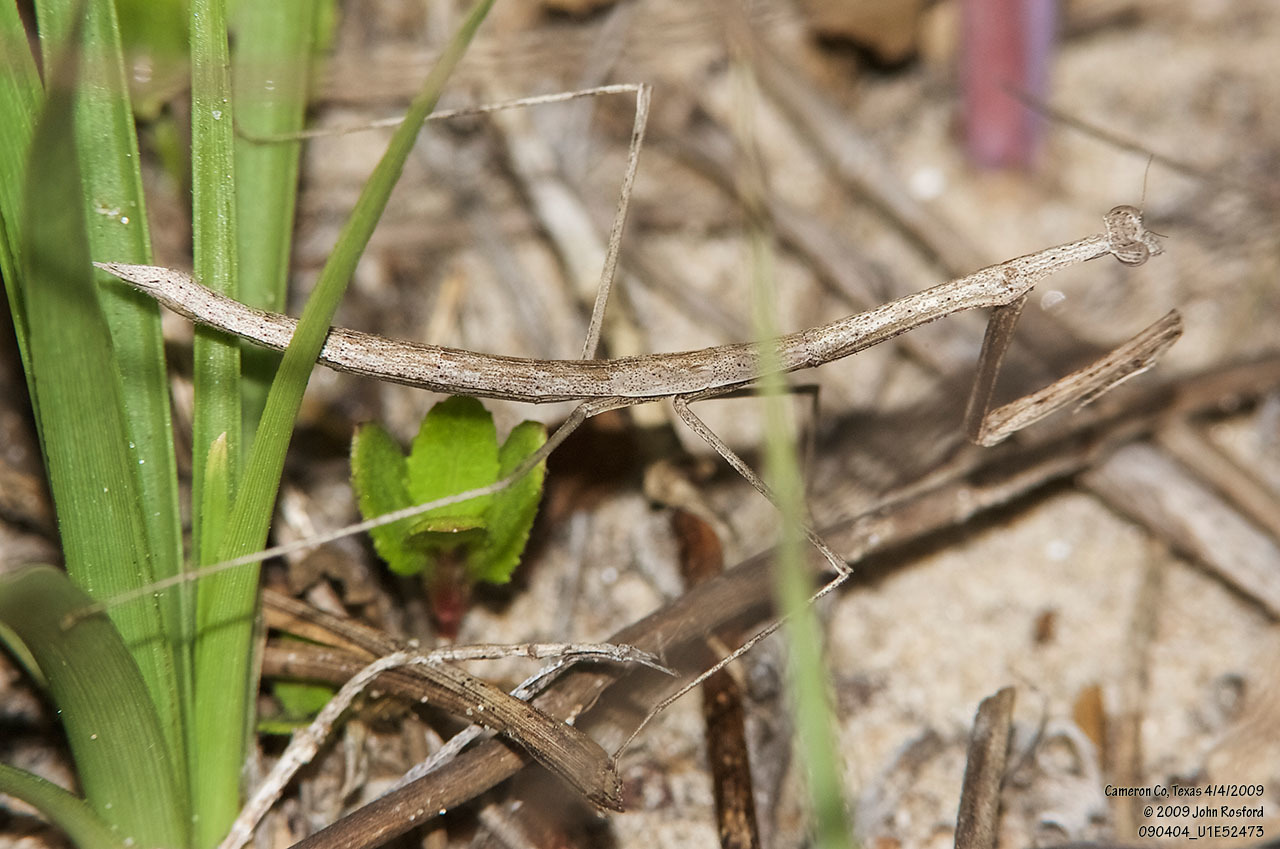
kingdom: Animalia
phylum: Arthropoda
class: Insecta
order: Mantodea
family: Thespidae
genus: Bistanta
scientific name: Bistanta campestris
